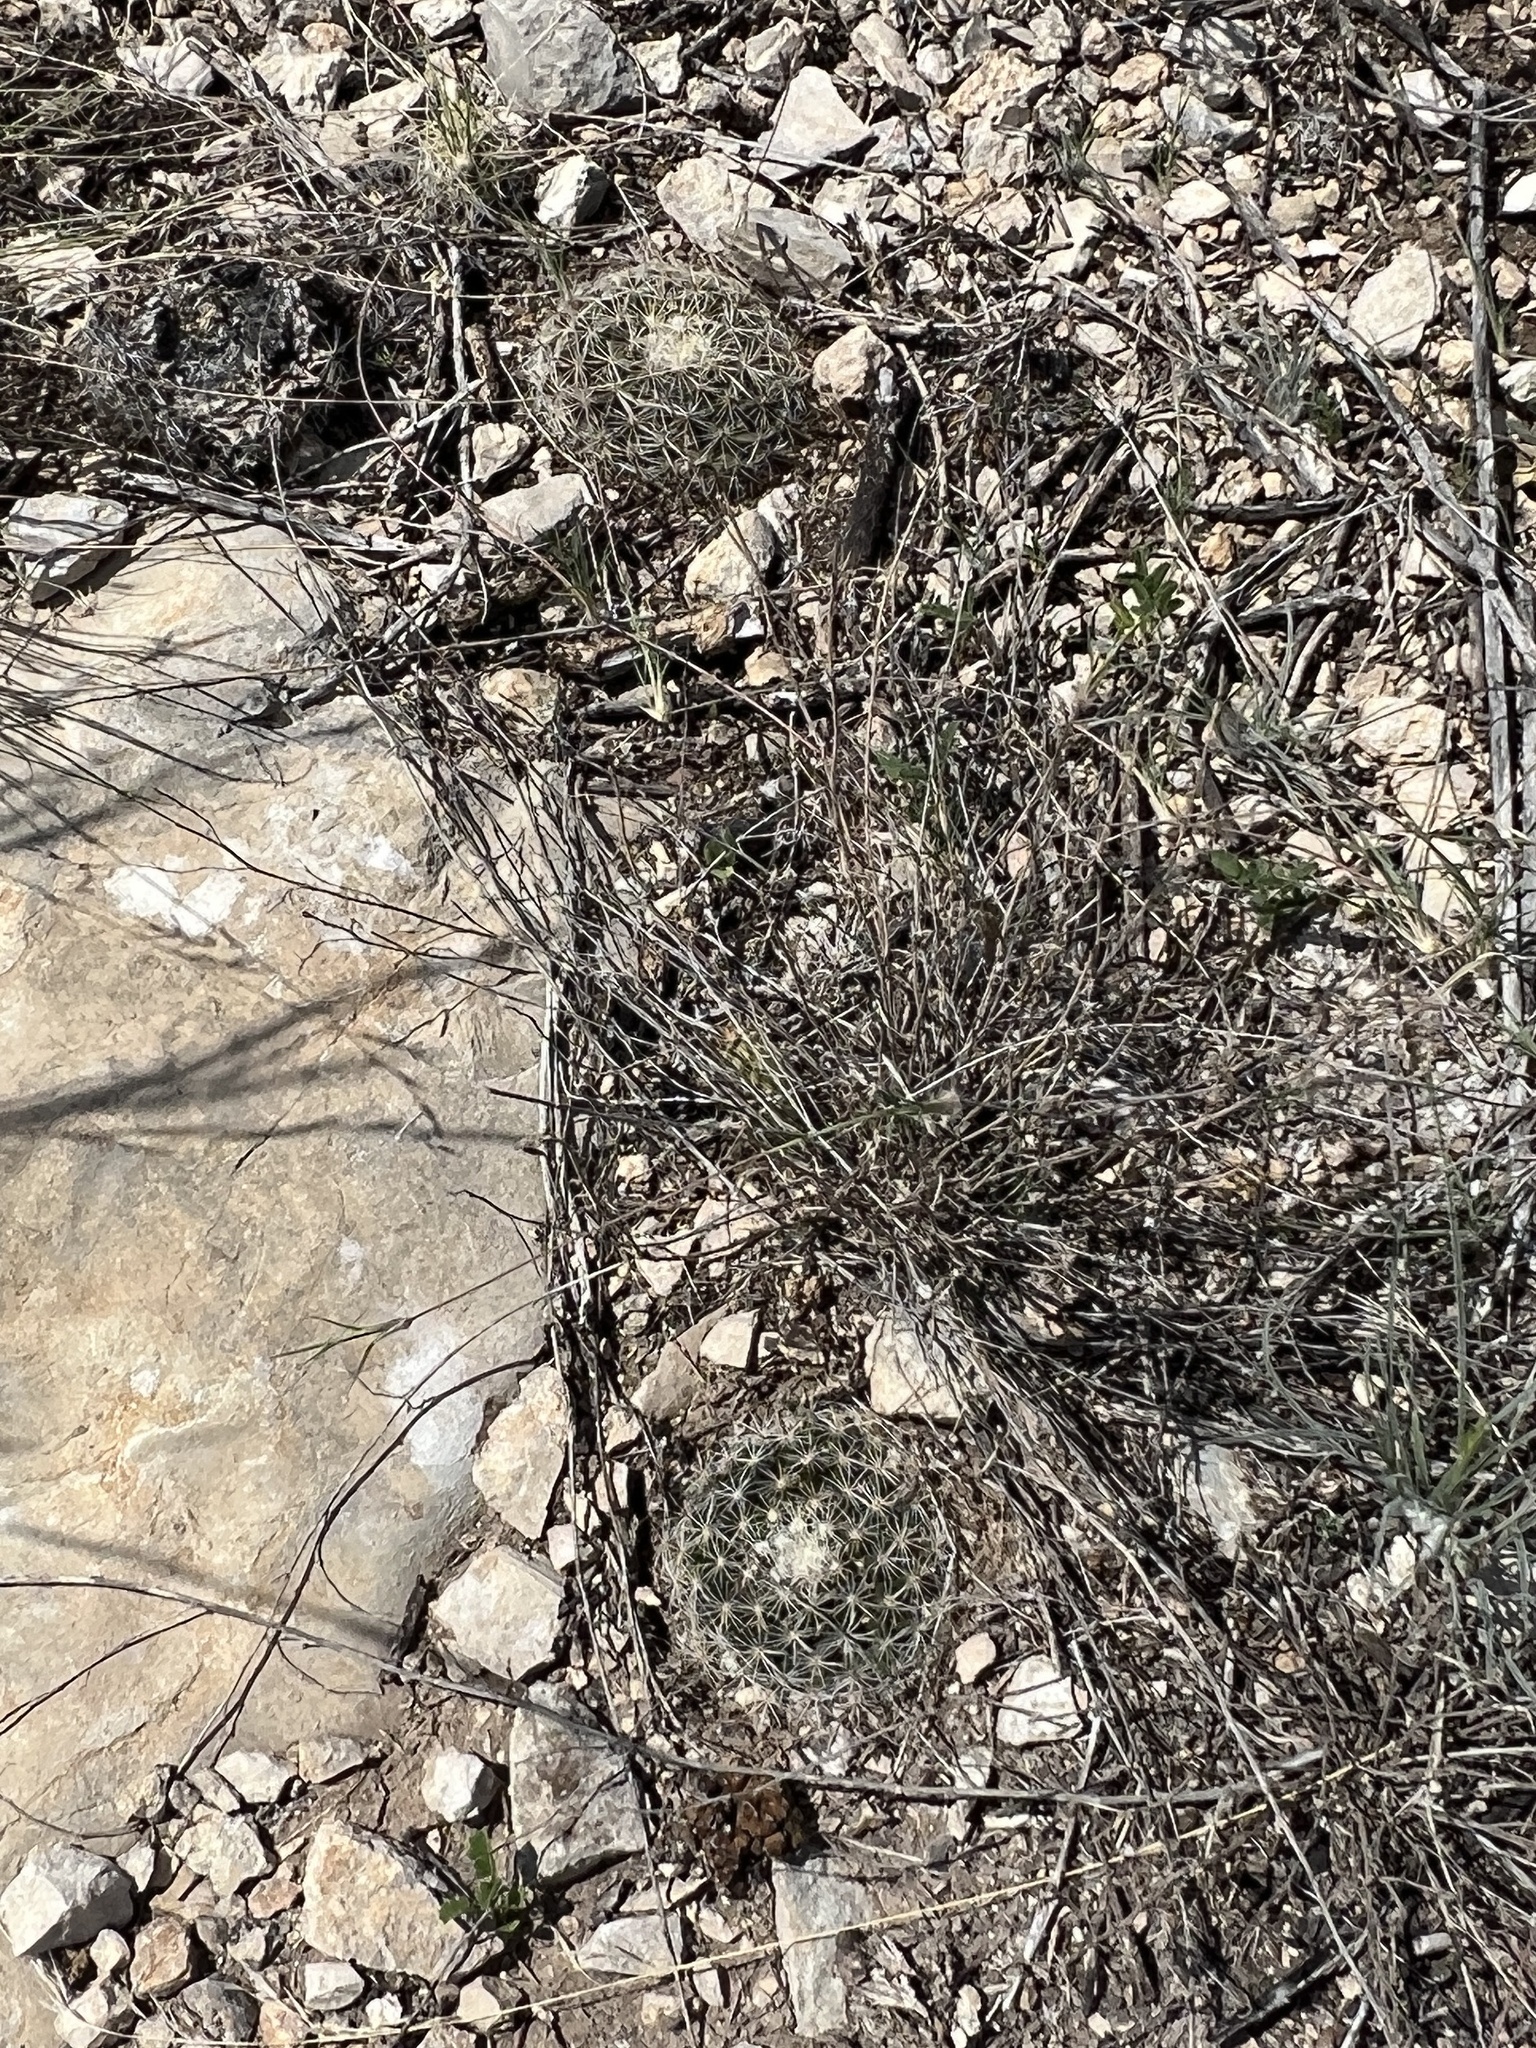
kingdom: Plantae
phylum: Tracheophyta
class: Magnoliopsida
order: Caryophyllales
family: Cactaceae
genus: Mammillaria
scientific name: Mammillaria heyderi
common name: Little nipple cactus
